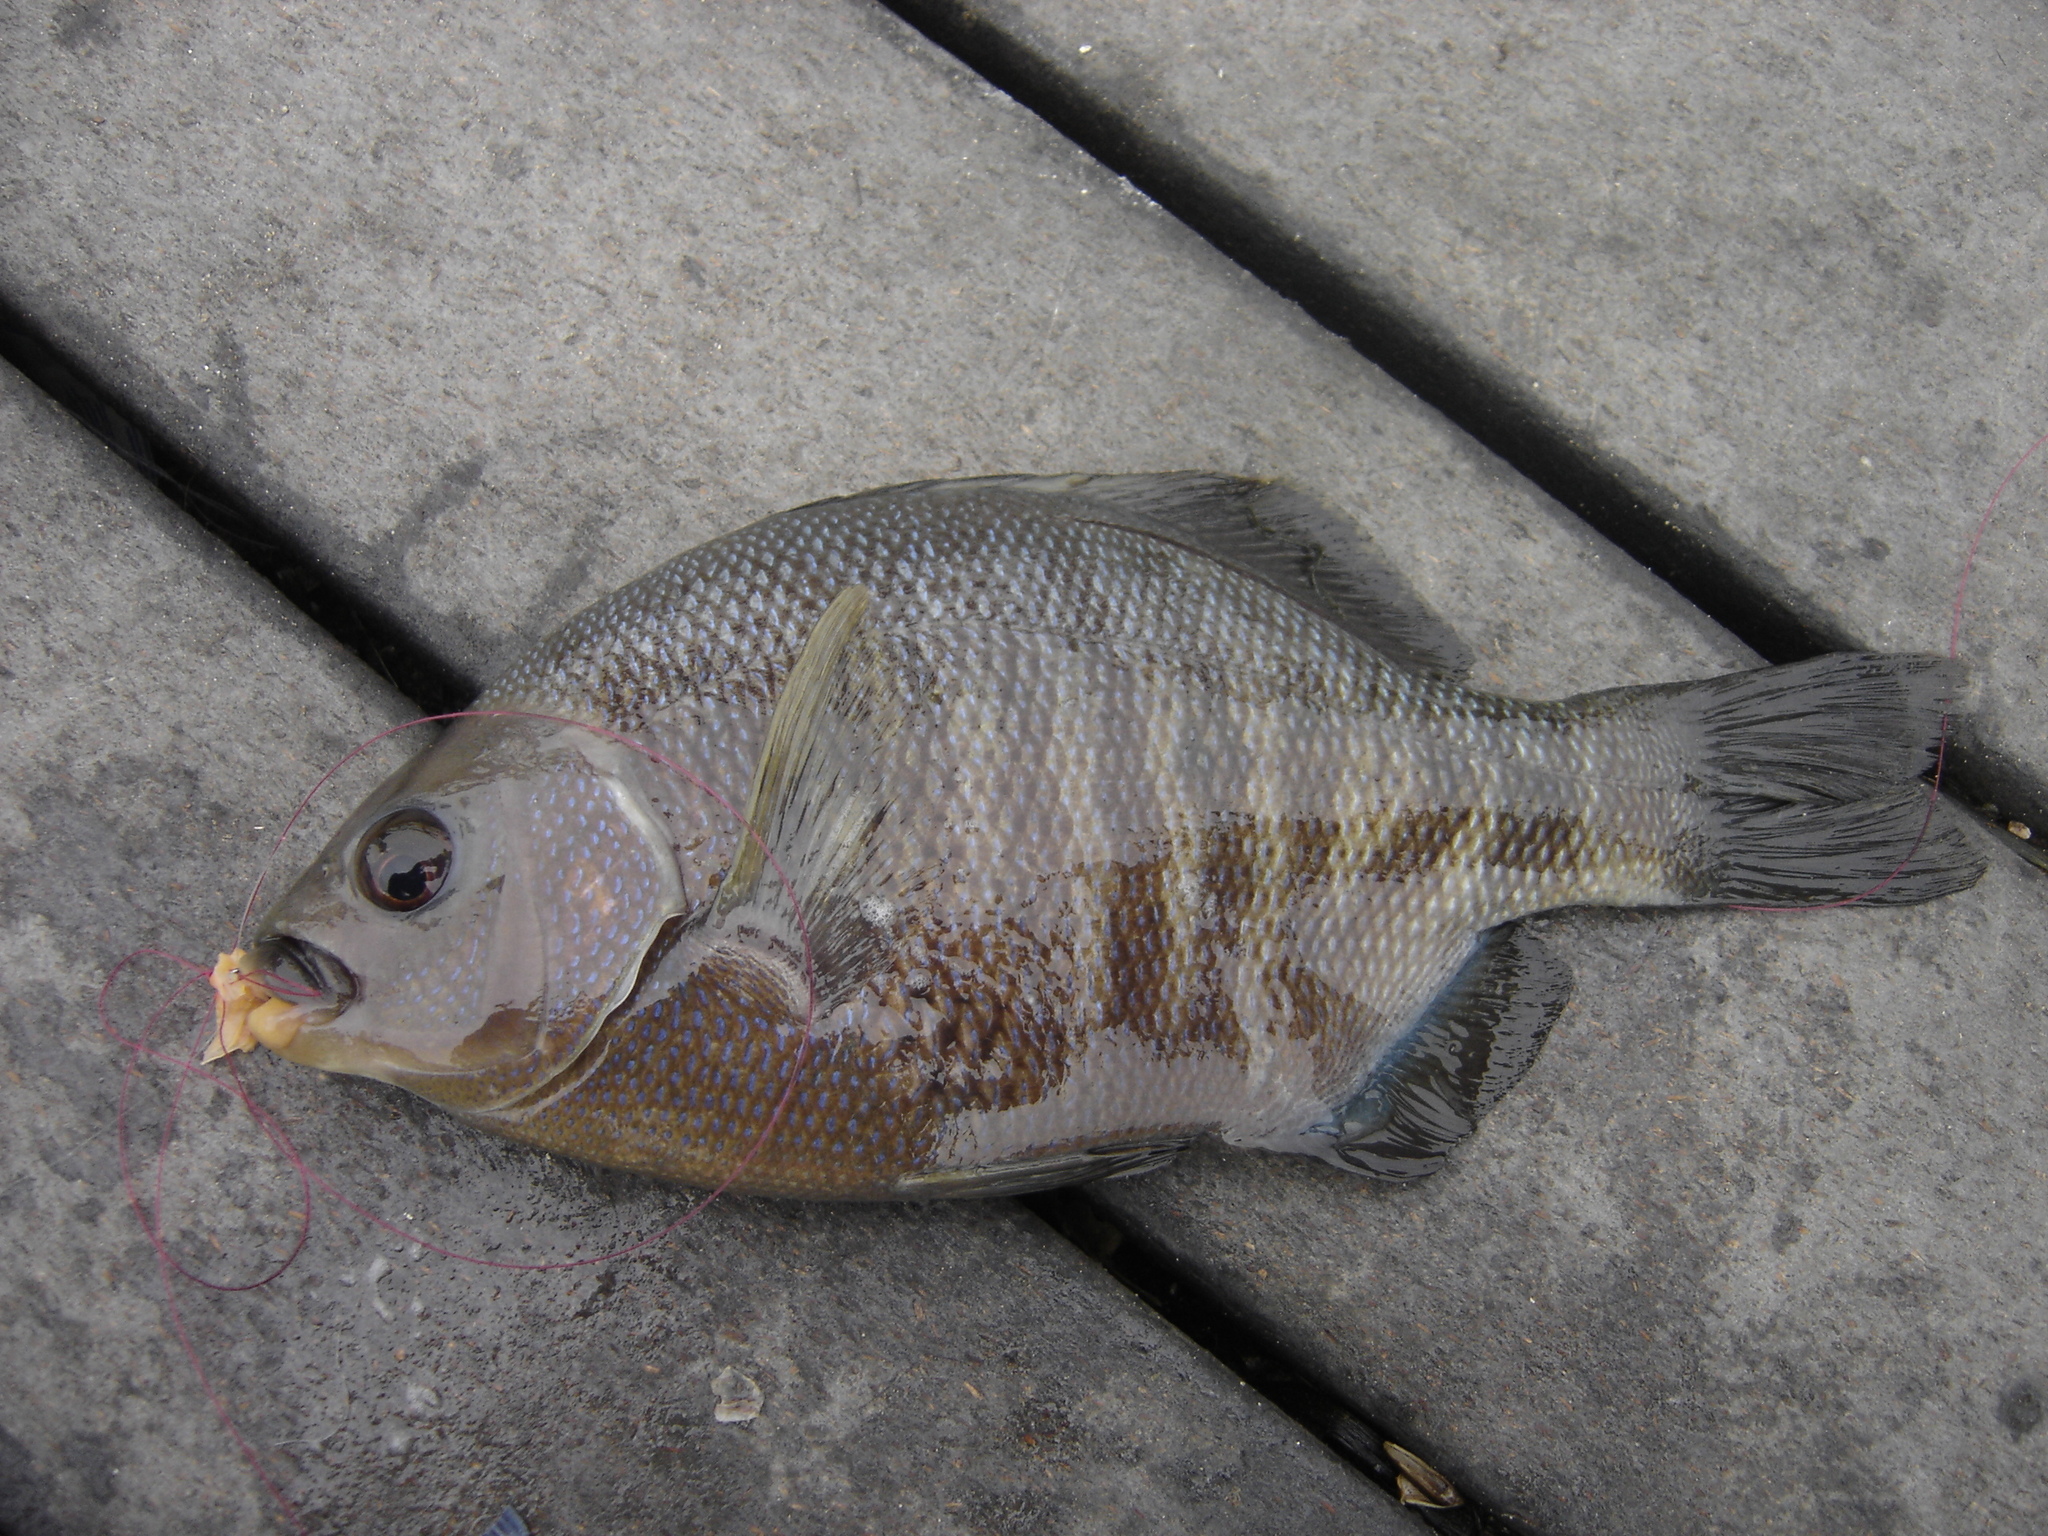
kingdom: Animalia
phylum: Chordata
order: Perciformes
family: Embiotocidae
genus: Embiotoca
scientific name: Embiotoca jacksoni
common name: Black perch
